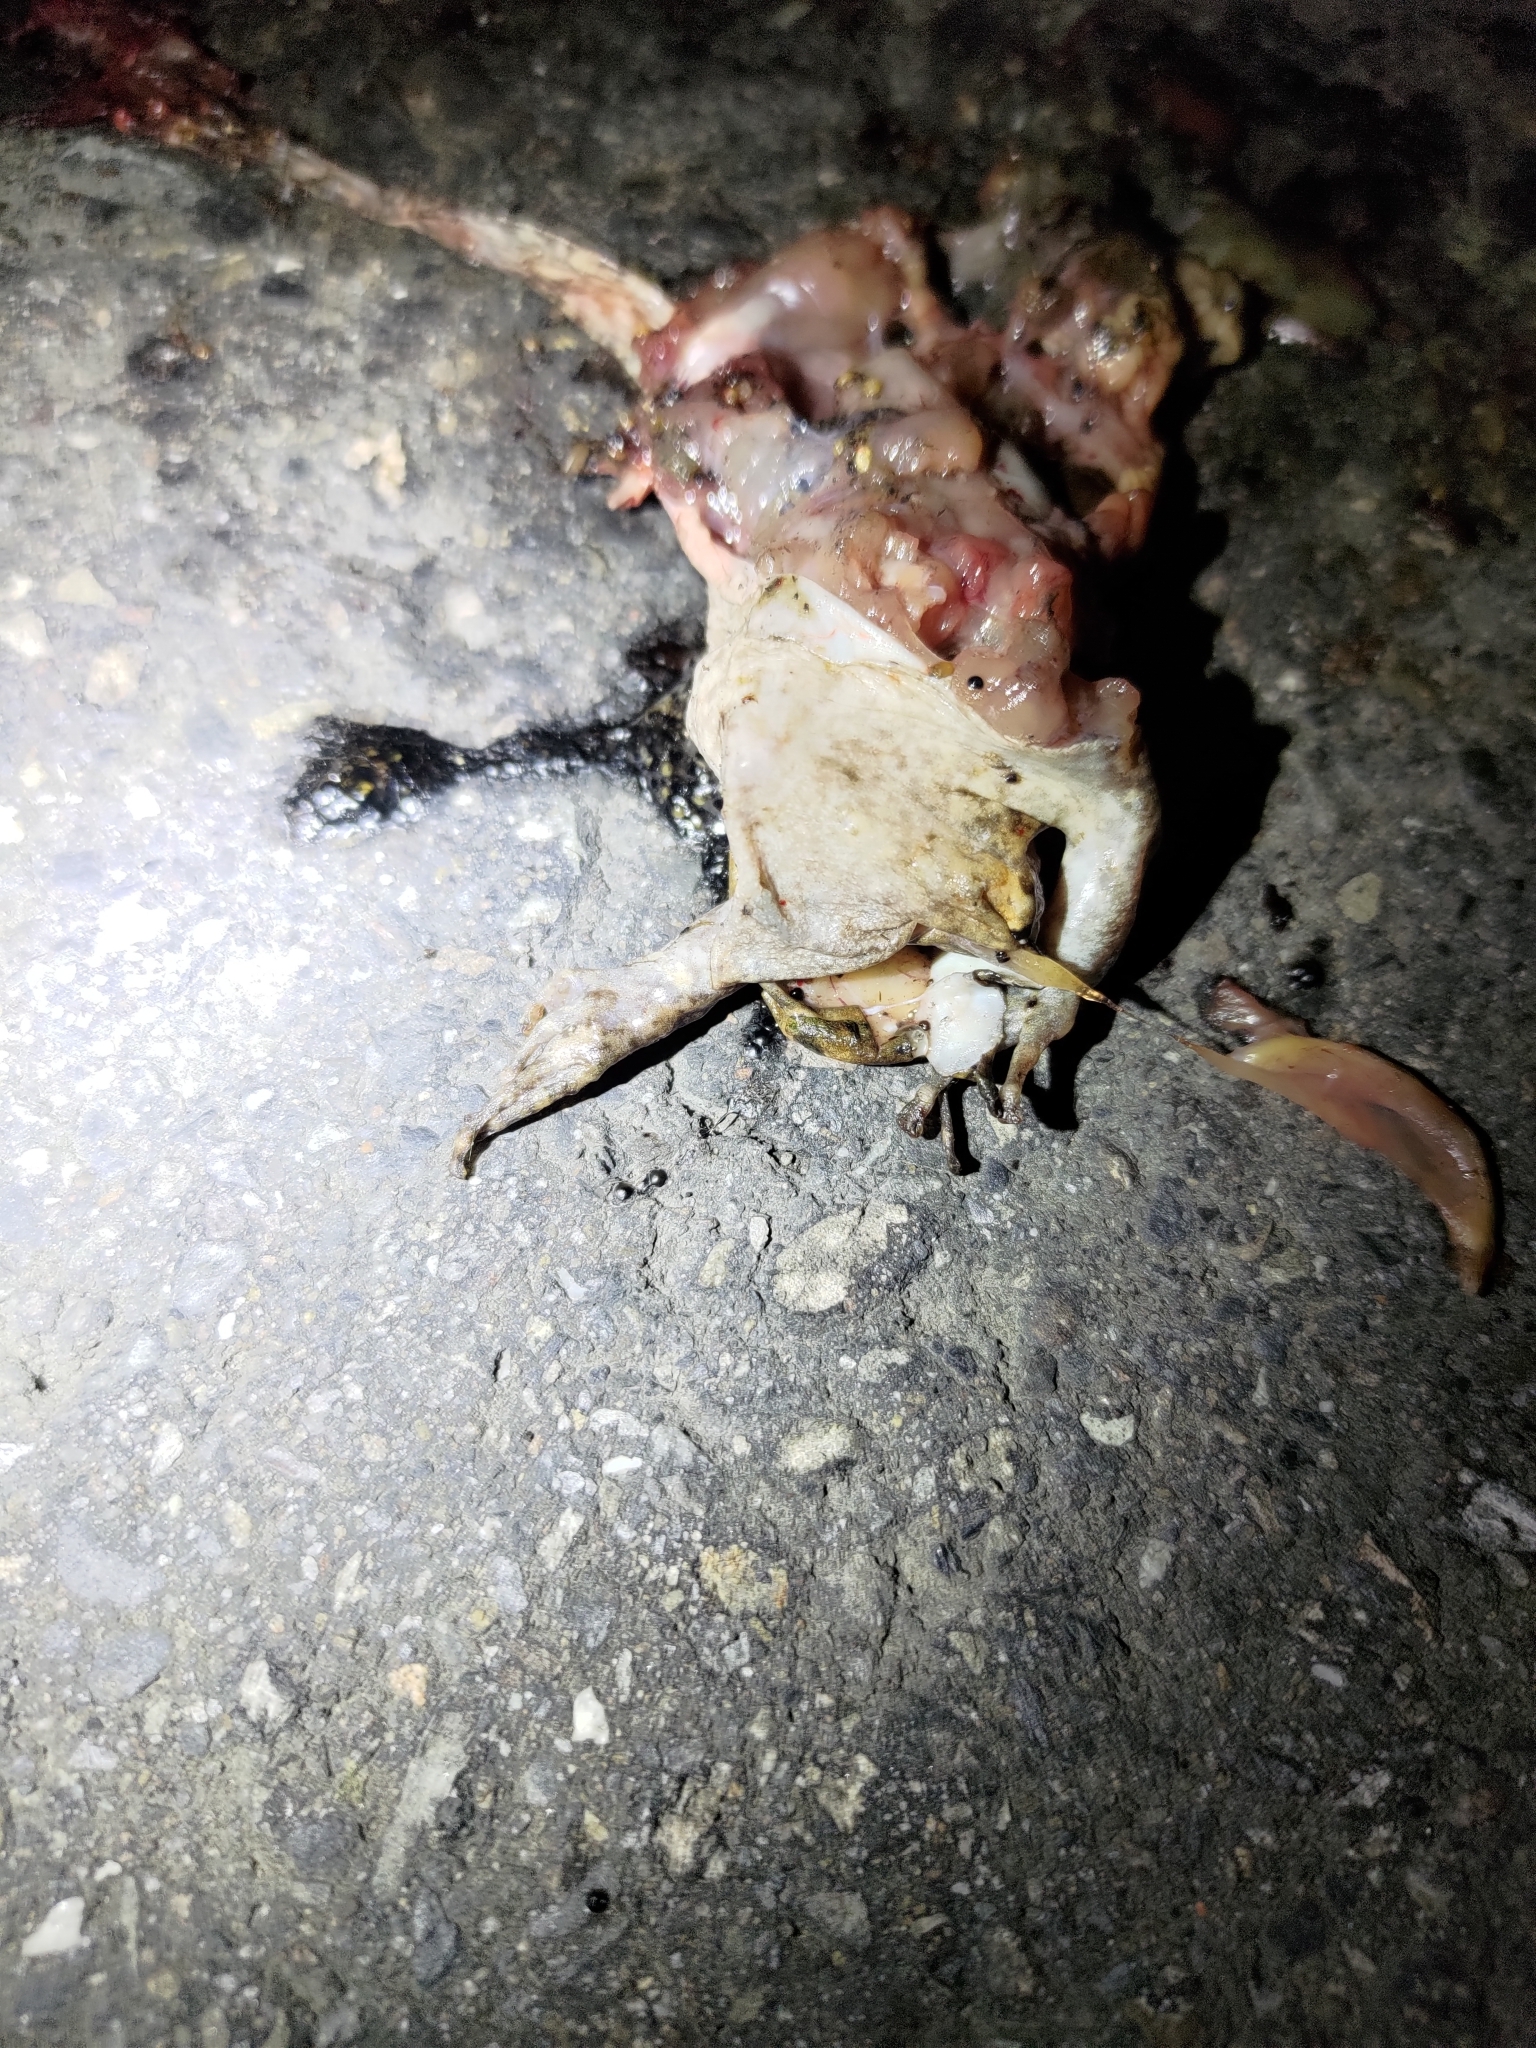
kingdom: Animalia
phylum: Chordata
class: Amphibia
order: Anura
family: Microhylidae
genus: Kaloula
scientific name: Kaloula pulchra
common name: Common,banded bullfrog
